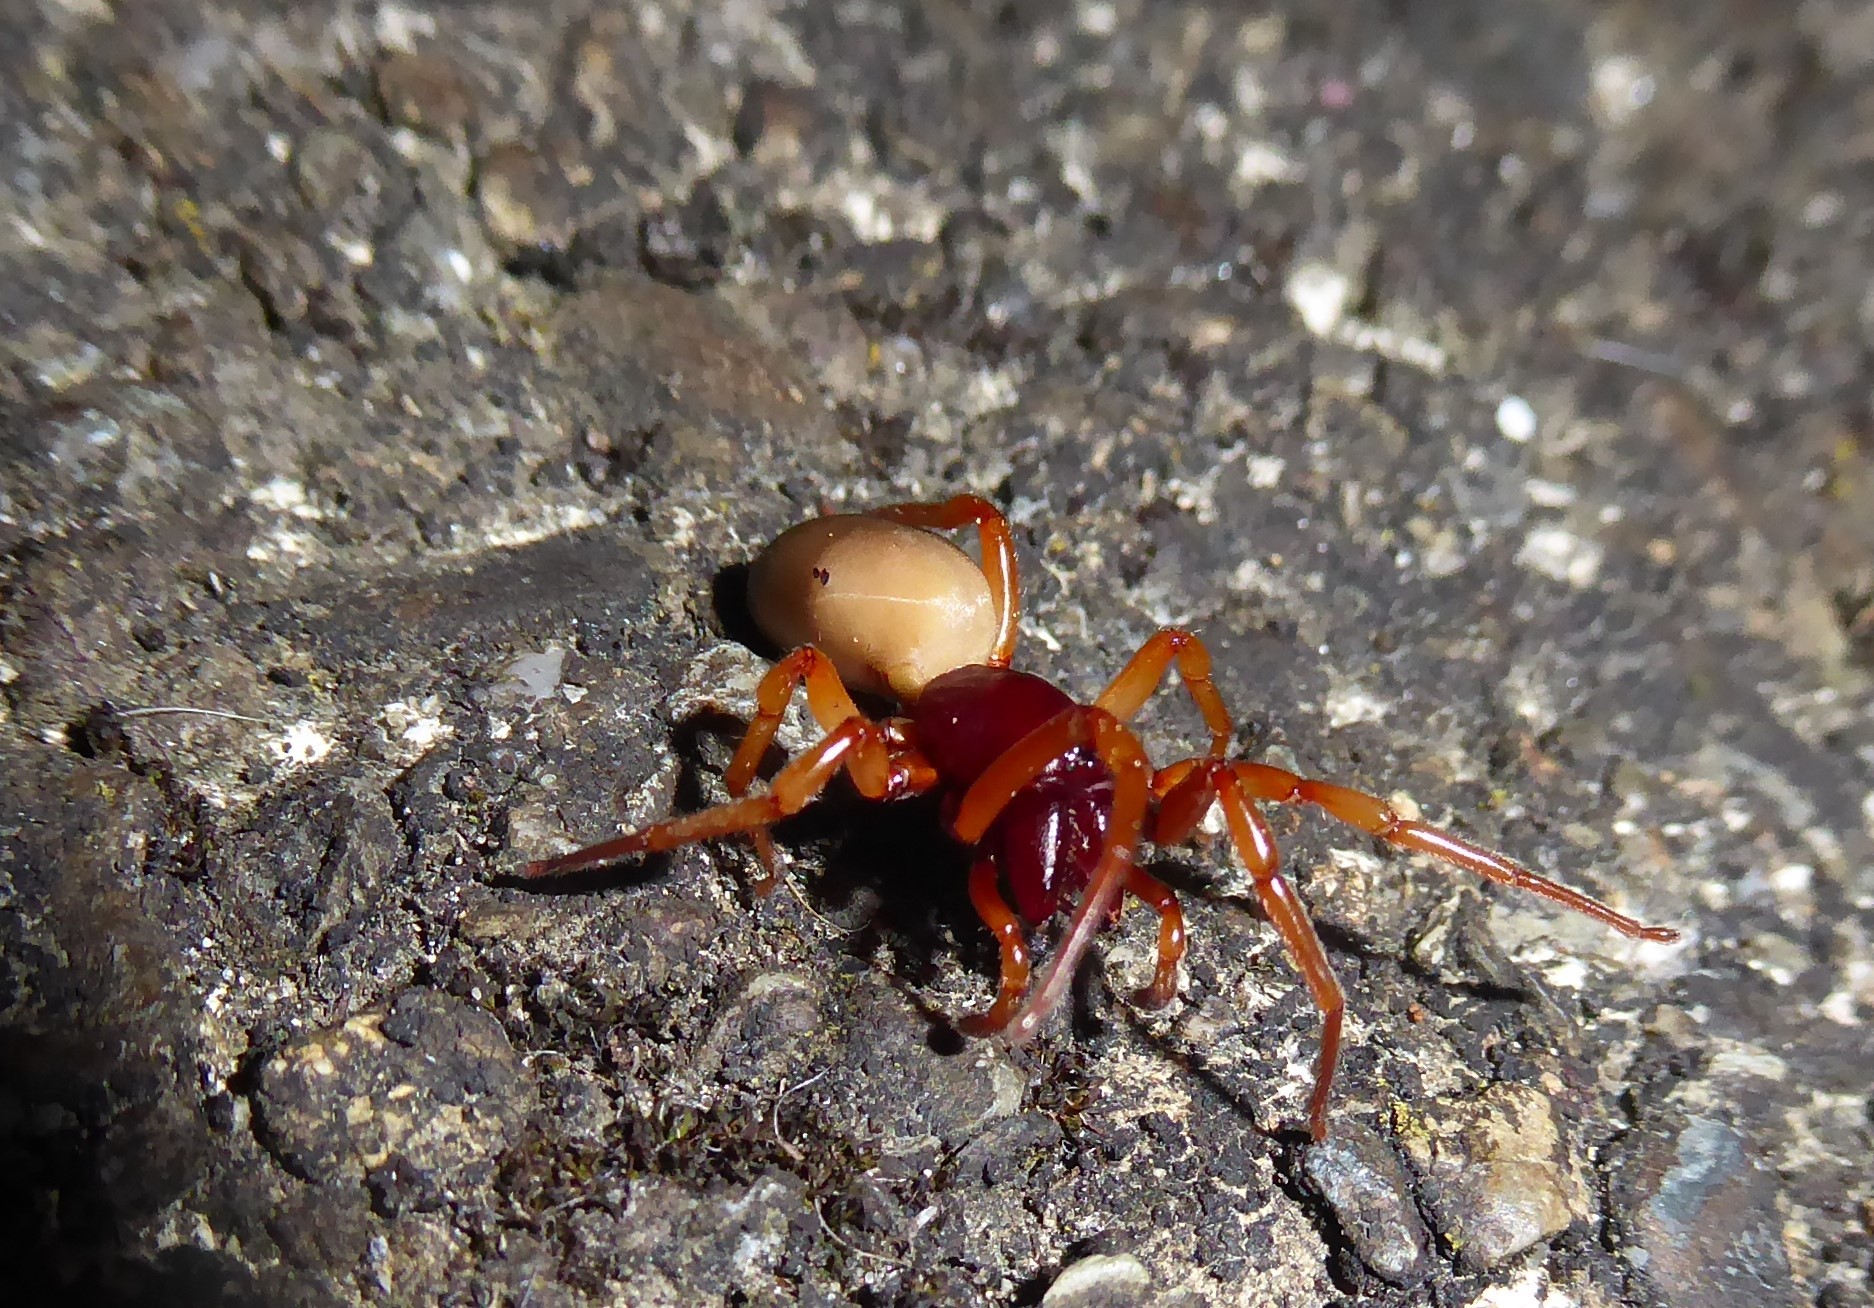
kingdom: Animalia
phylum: Arthropoda
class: Arachnida
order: Araneae
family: Dysderidae
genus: Dysdera
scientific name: Dysdera crocata
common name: Woodlouse spider
